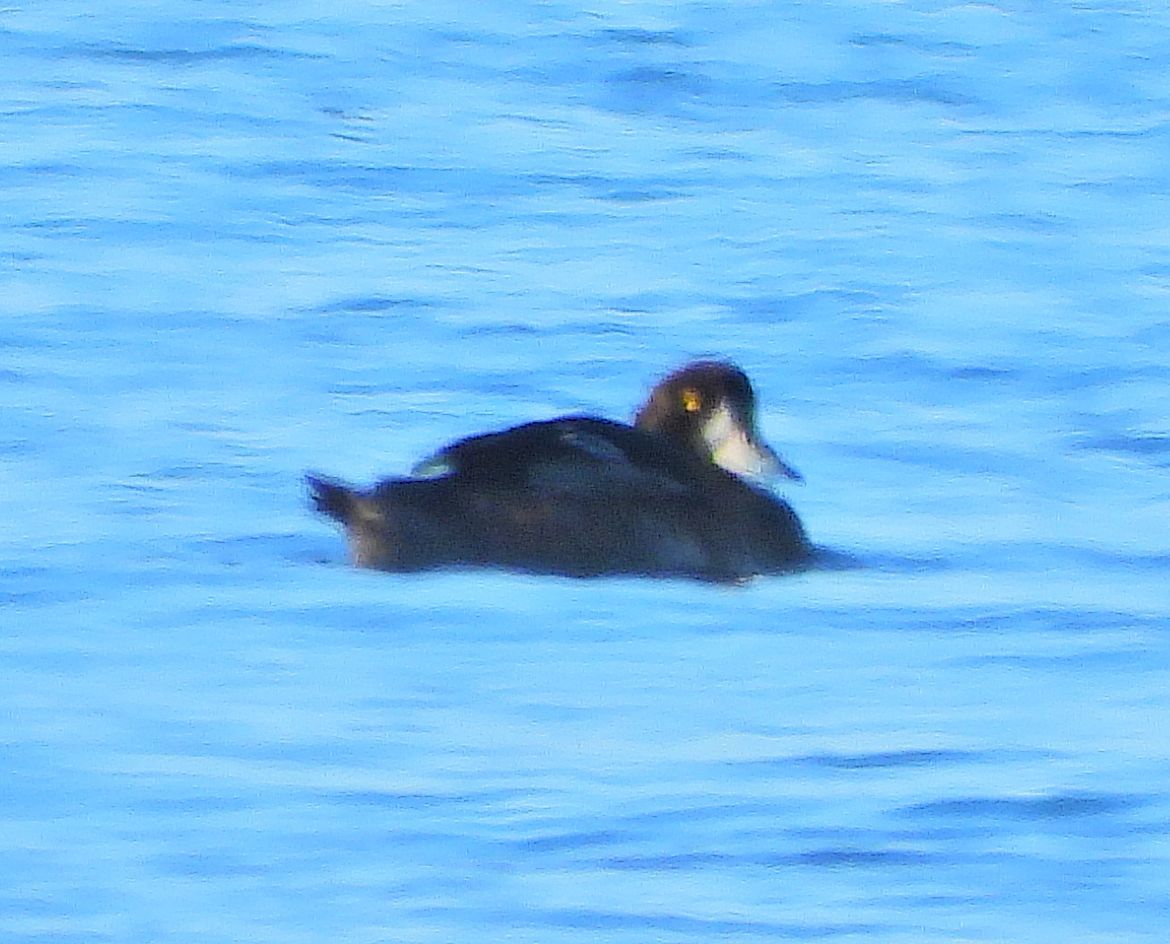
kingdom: Animalia
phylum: Chordata
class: Aves
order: Anseriformes
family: Anatidae
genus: Aythya
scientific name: Aythya marila
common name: Greater scaup
